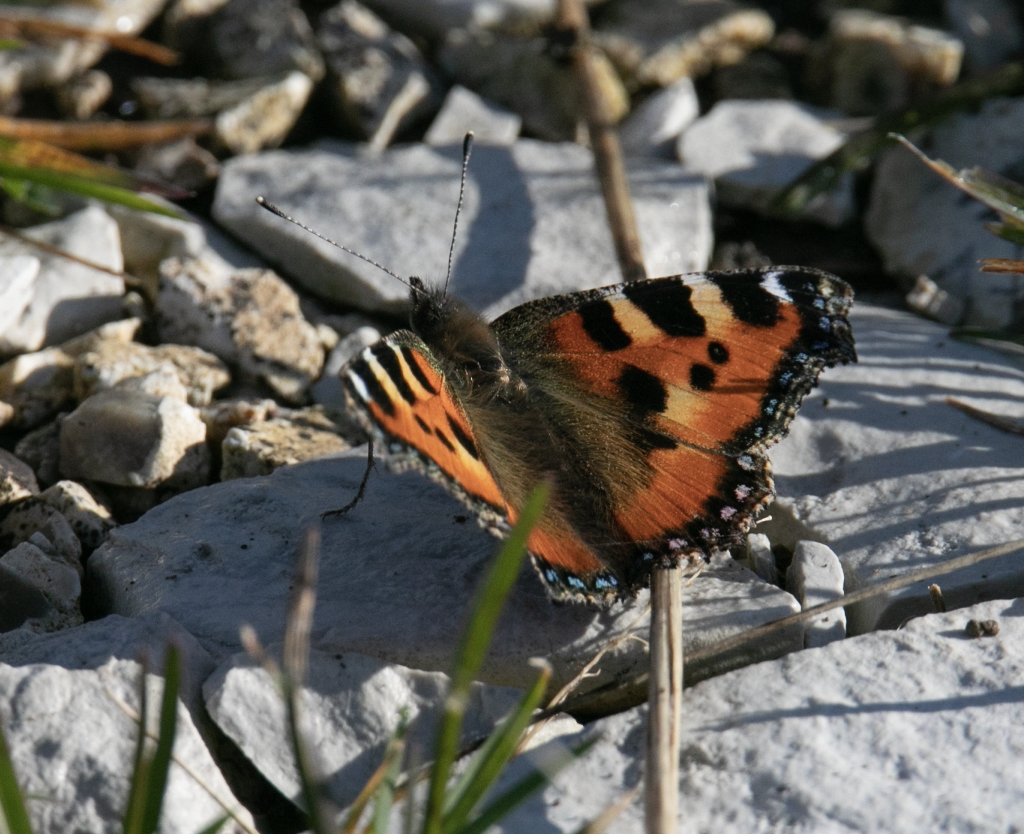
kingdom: Animalia
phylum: Arthropoda
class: Insecta
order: Lepidoptera
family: Nymphalidae
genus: Aglais
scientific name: Aglais urticae
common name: Small tortoiseshell
